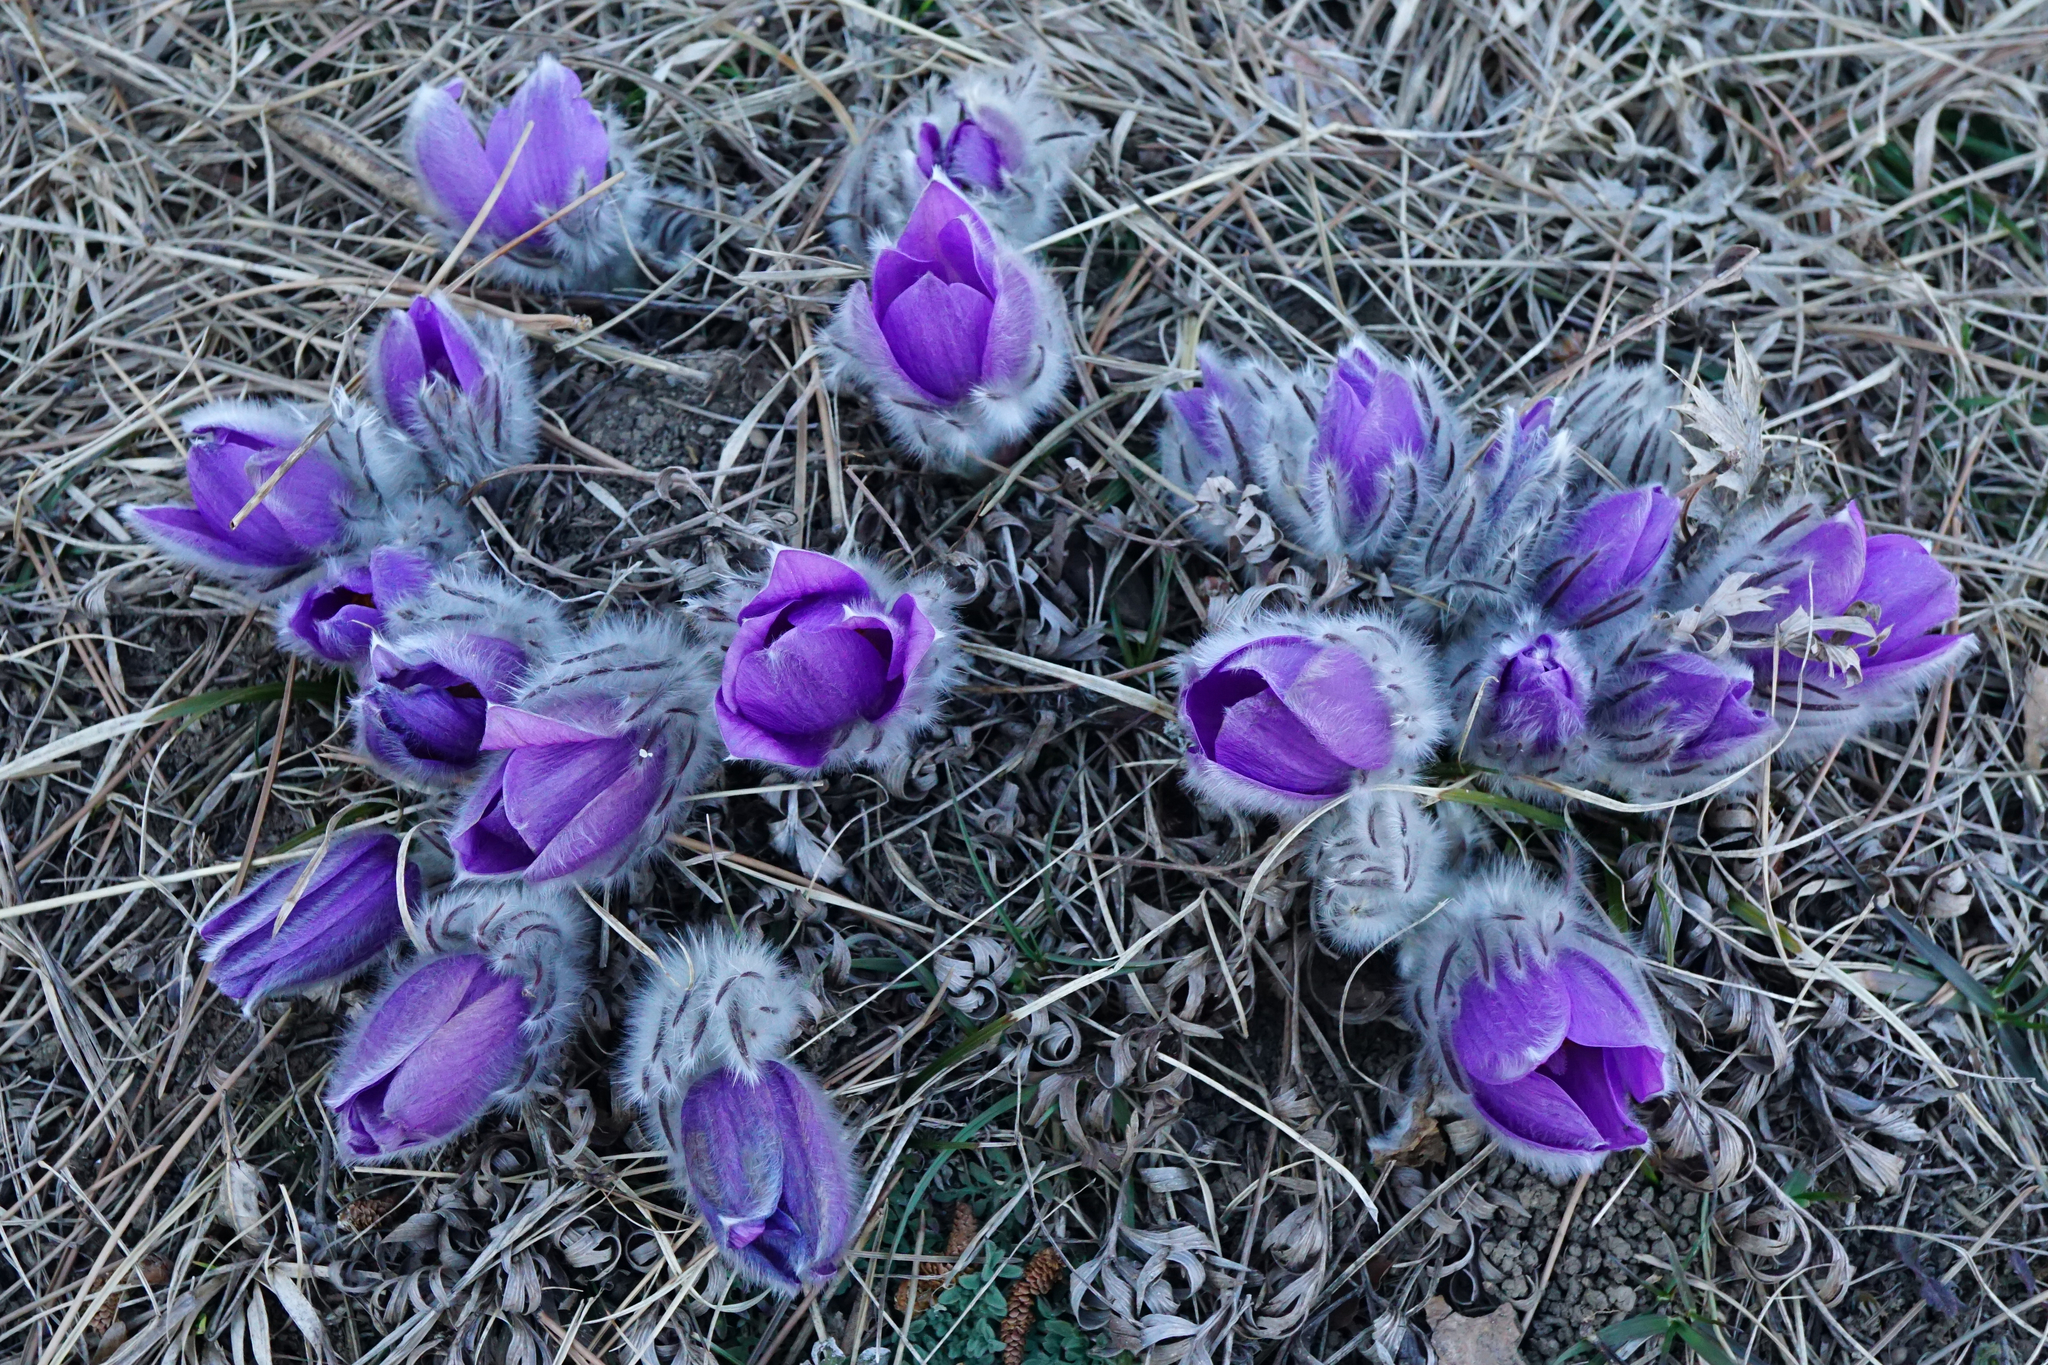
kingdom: Plantae
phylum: Tracheophyta
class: Magnoliopsida
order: Ranunculales
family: Ranunculaceae
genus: Pulsatilla
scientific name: Pulsatilla grandis
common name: Greater pasque flower
